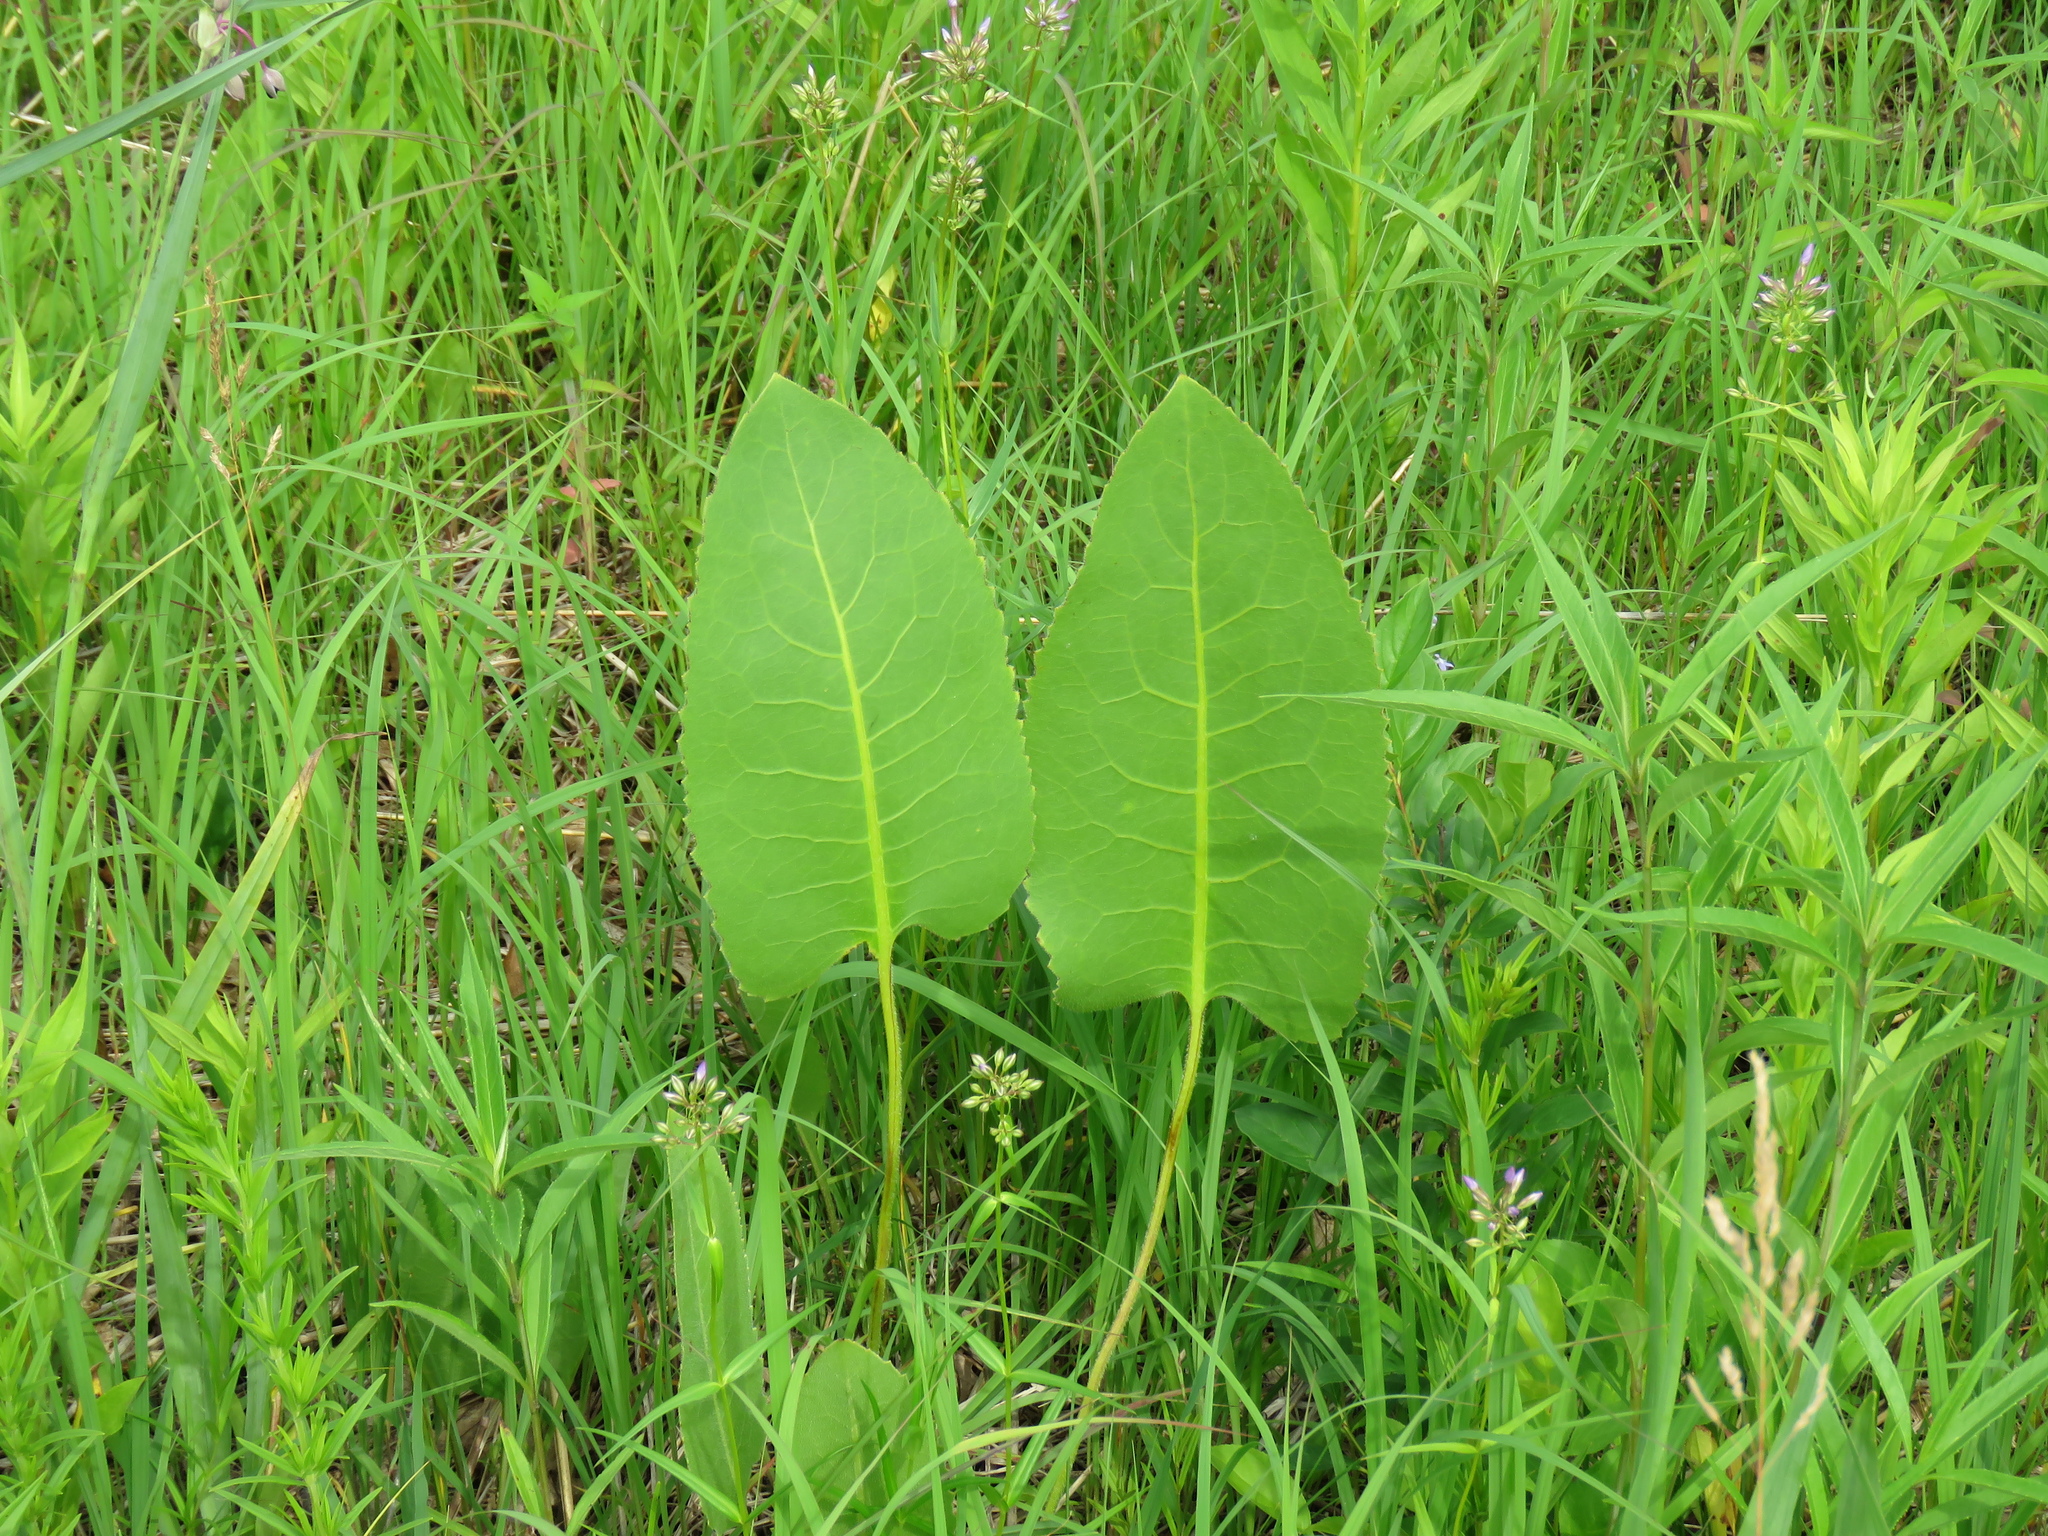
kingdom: Plantae
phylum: Tracheophyta
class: Magnoliopsida
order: Asterales
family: Asteraceae
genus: Silphium
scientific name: Silphium terebinthinaceum
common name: Basal-leaf rosinweed
